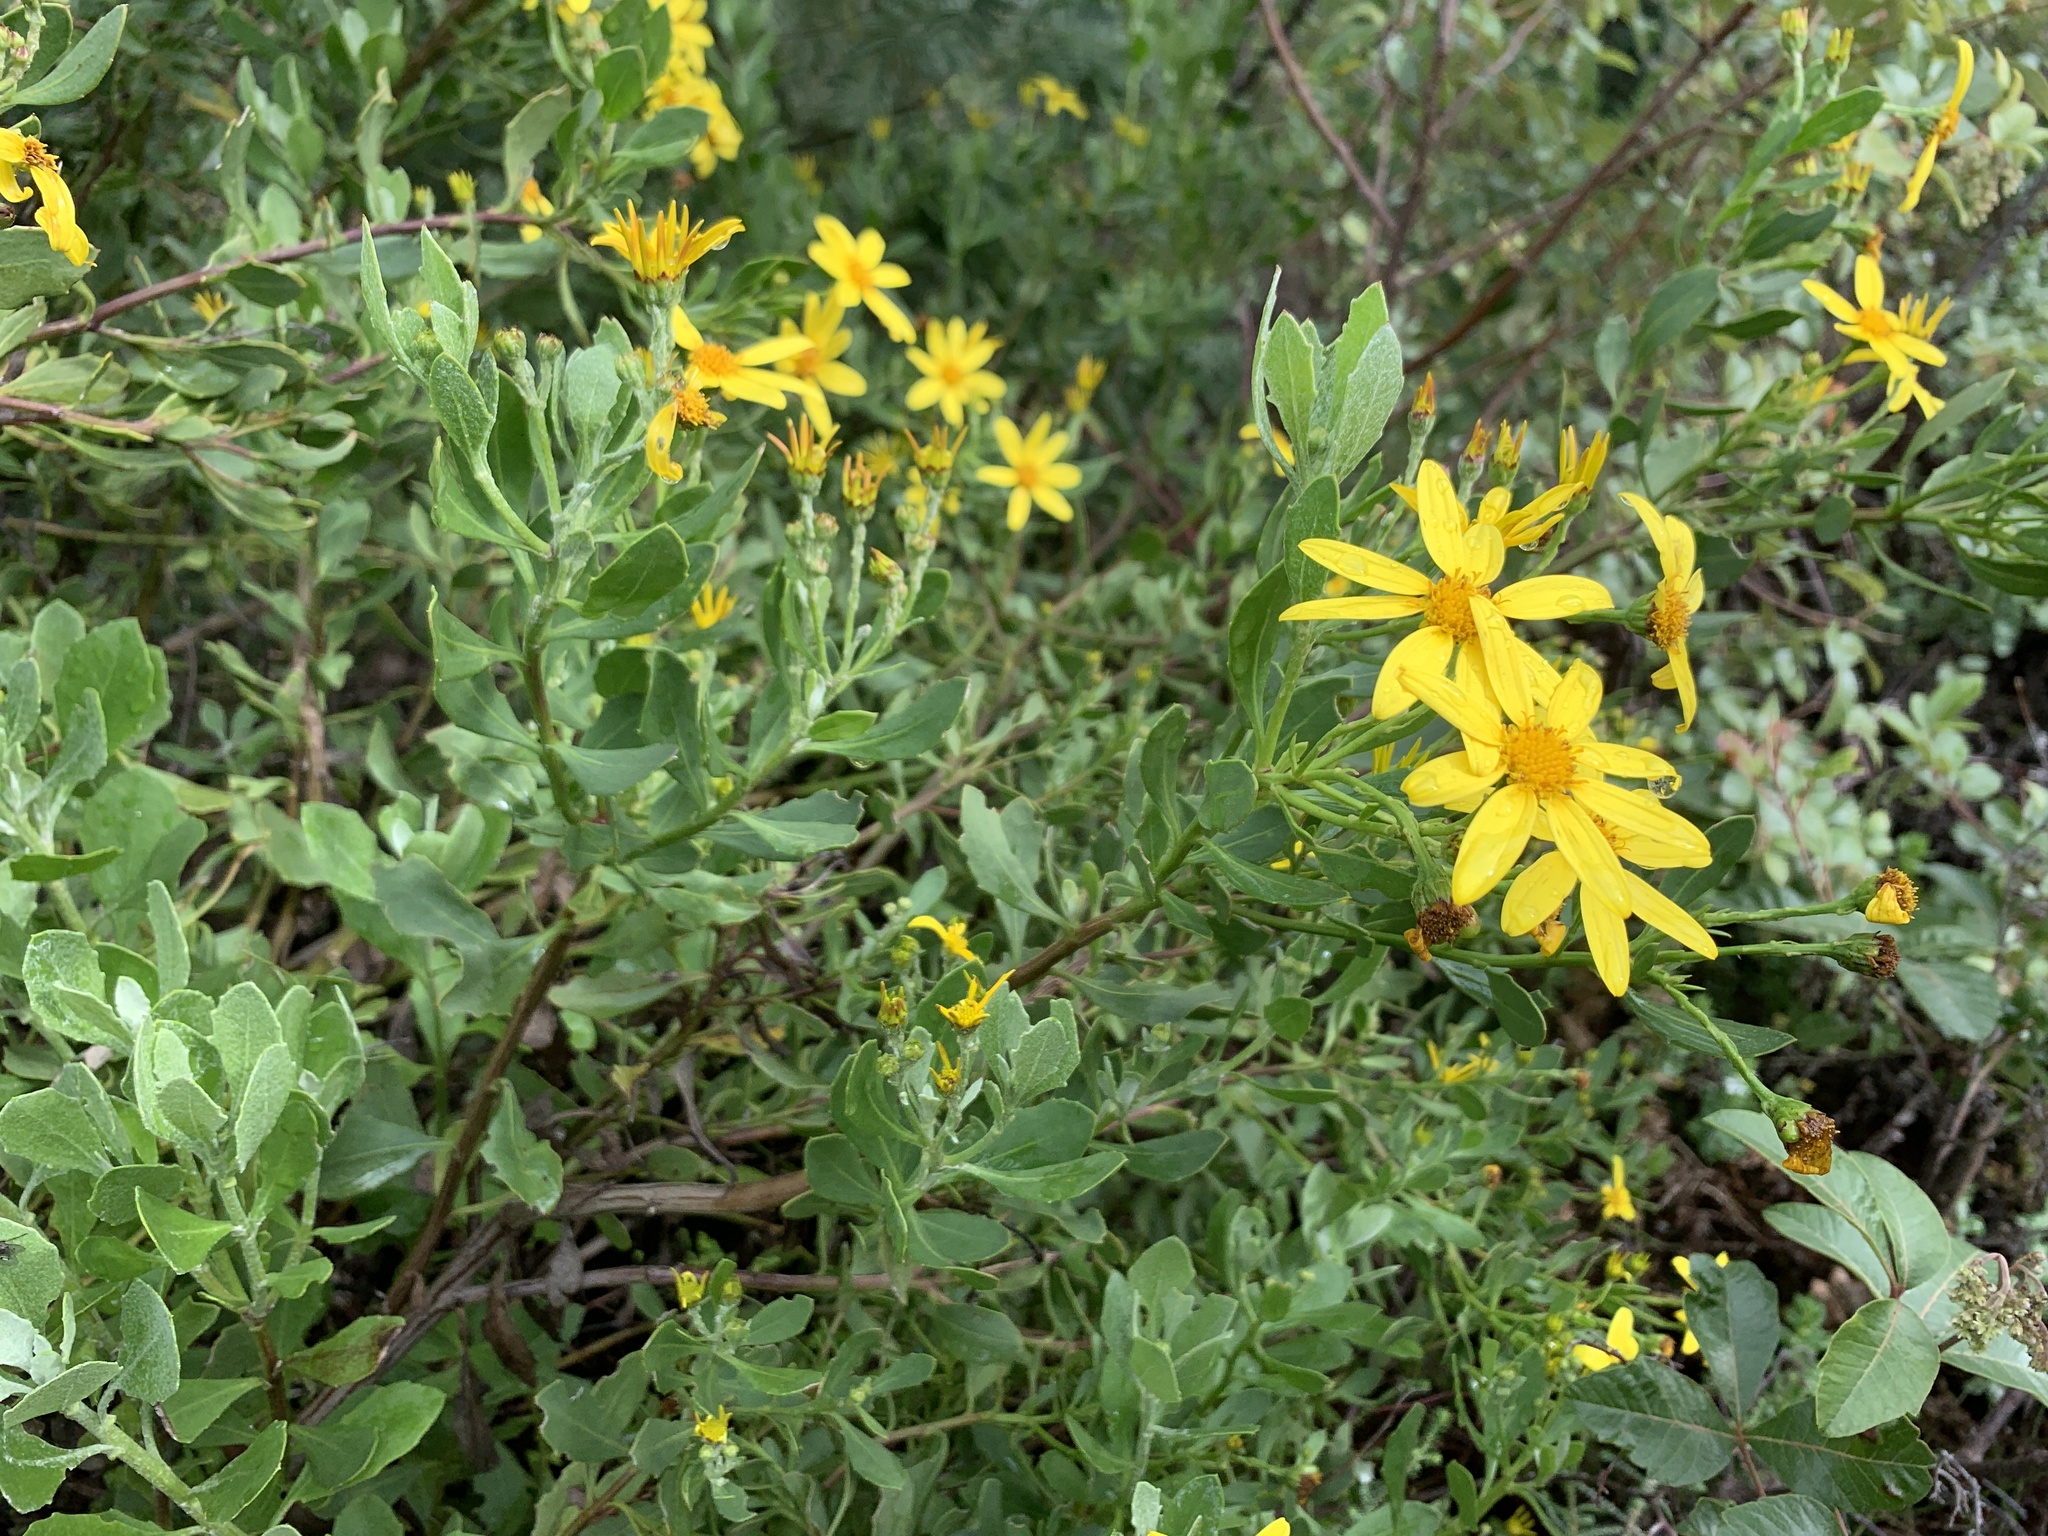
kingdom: Plantae
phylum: Tracheophyta
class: Magnoliopsida
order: Asterales
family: Asteraceae
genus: Osteospermum
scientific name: Osteospermum moniliferum
